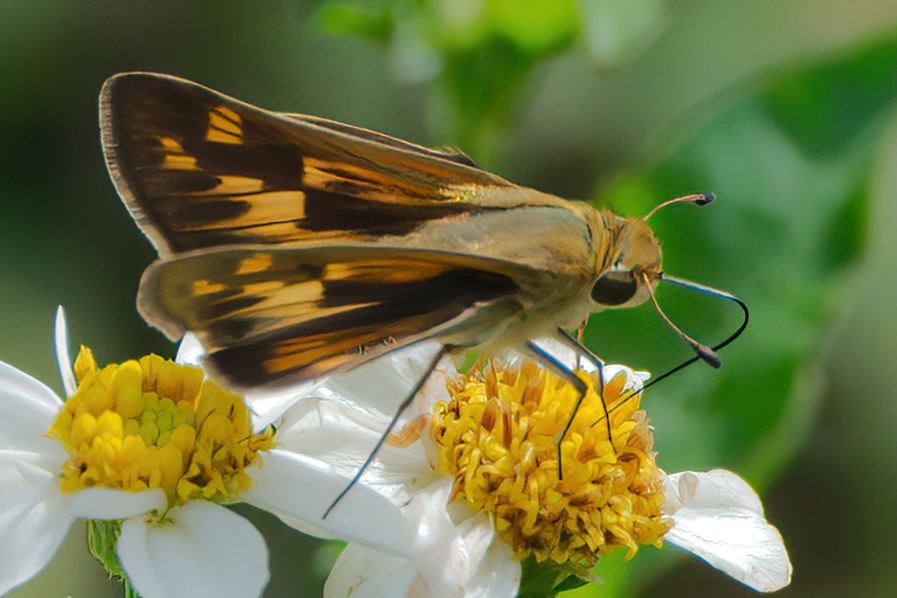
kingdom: Animalia
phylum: Arthropoda
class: Insecta
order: Lepidoptera
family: Hesperiidae
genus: Hylephila
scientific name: Hylephila phyleus
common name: Fiery skipper
